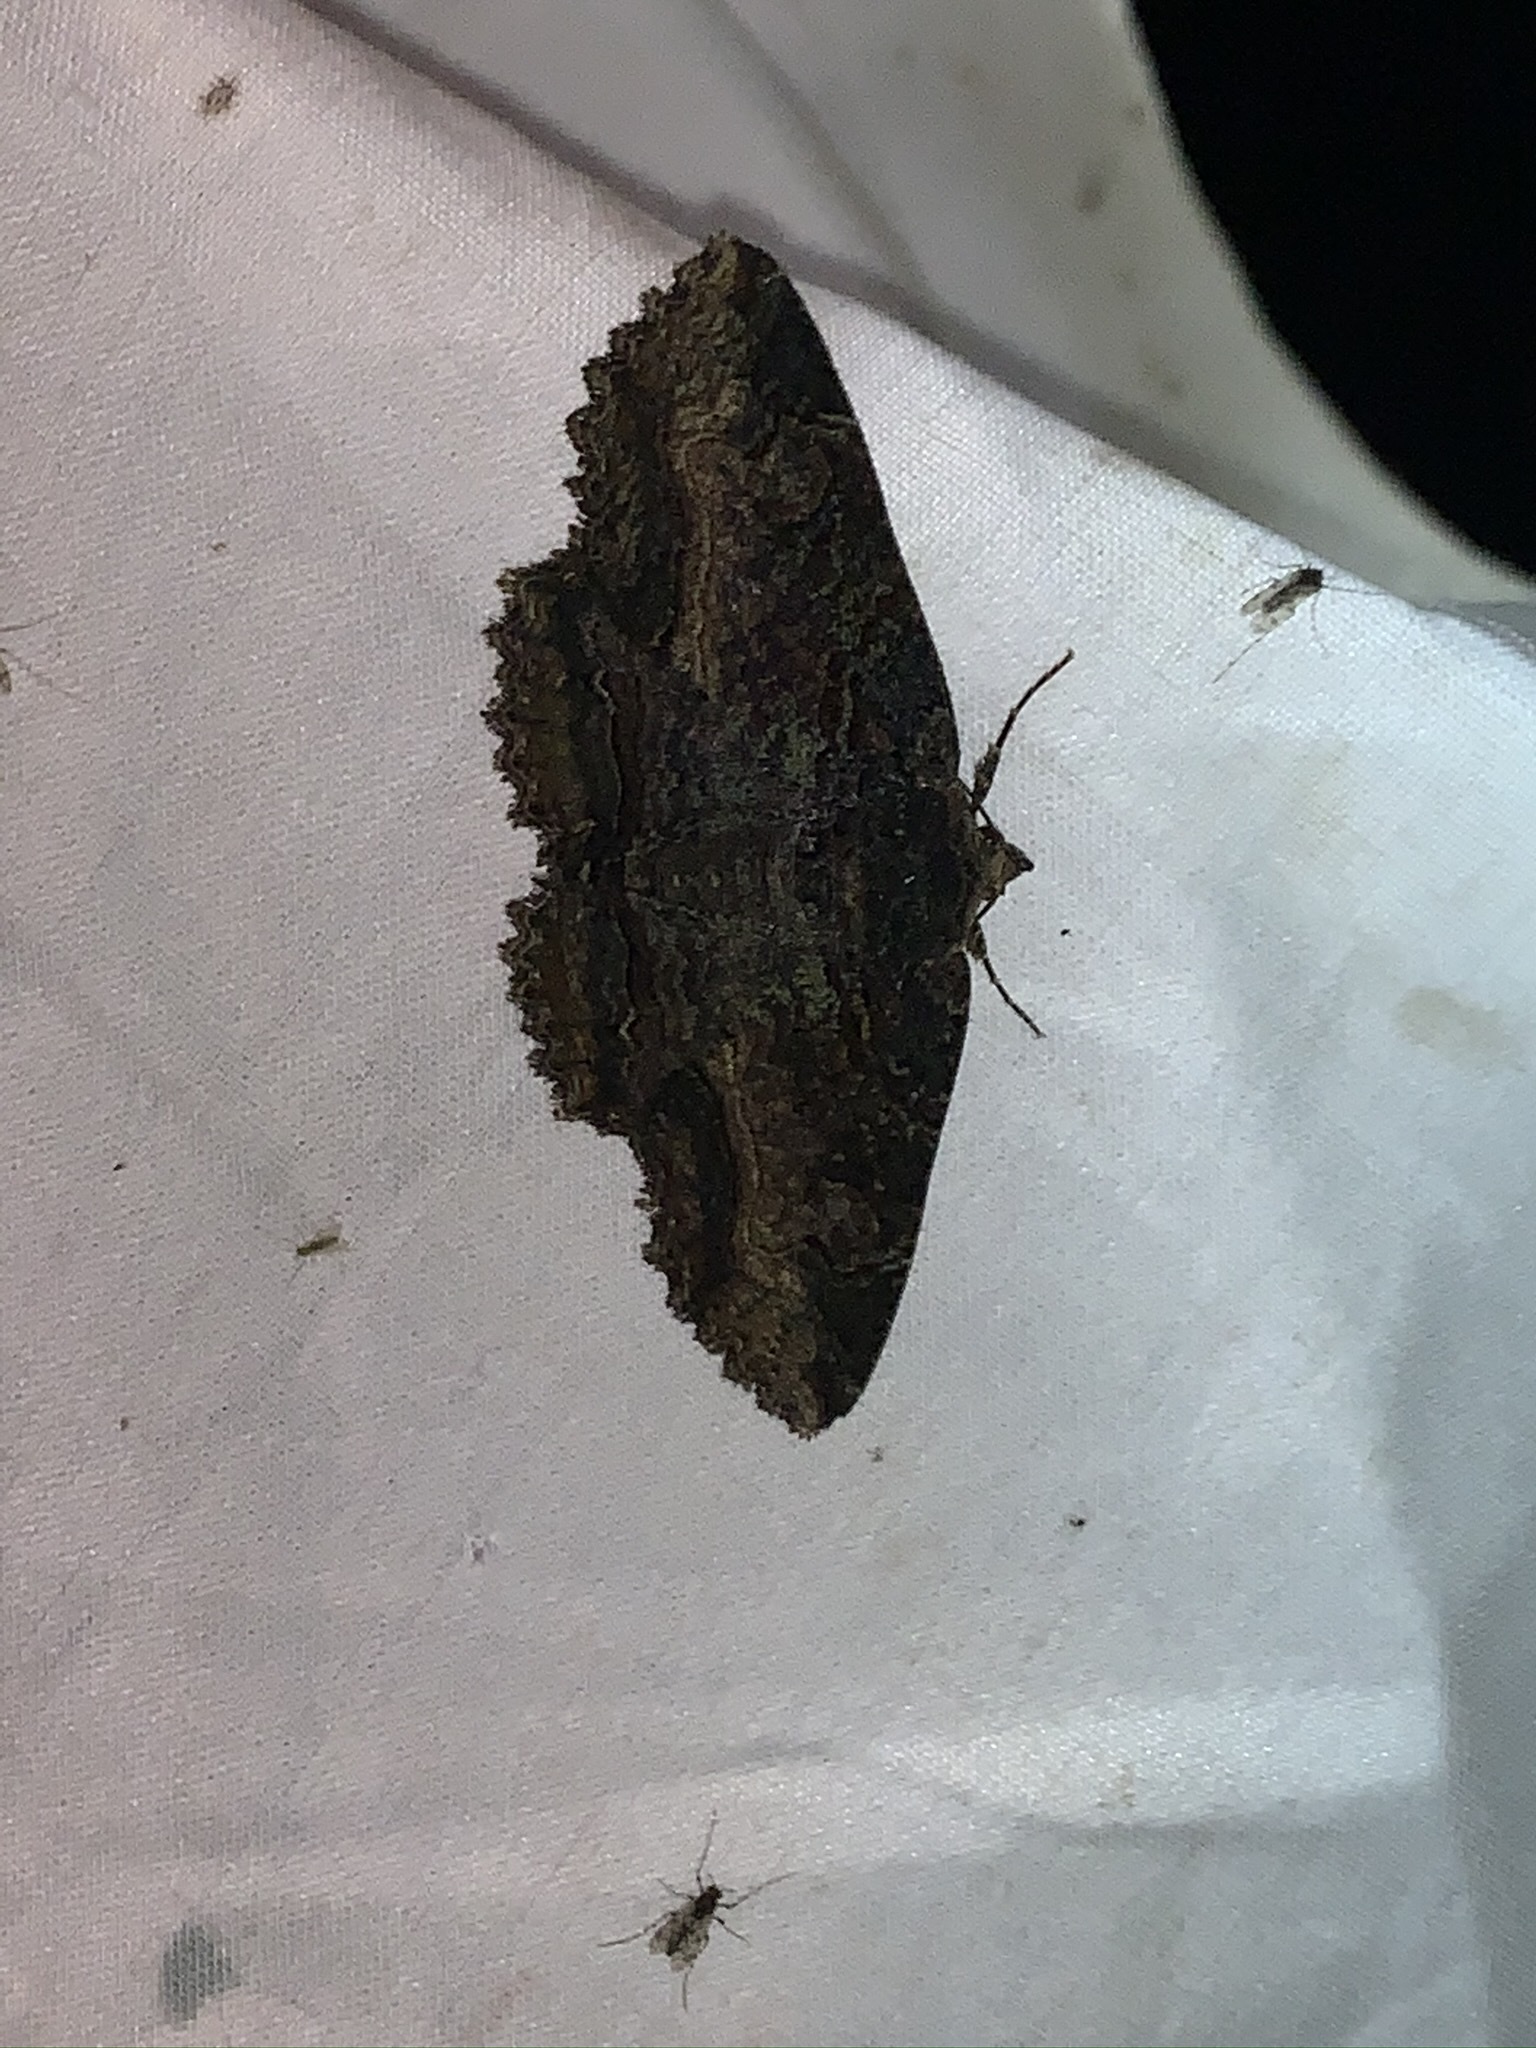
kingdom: Animalia
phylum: Arthropoda
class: Insecta
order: Lepidoptera
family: Erebidae
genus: Zale
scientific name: Zale minerea
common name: Colorful zale moth
